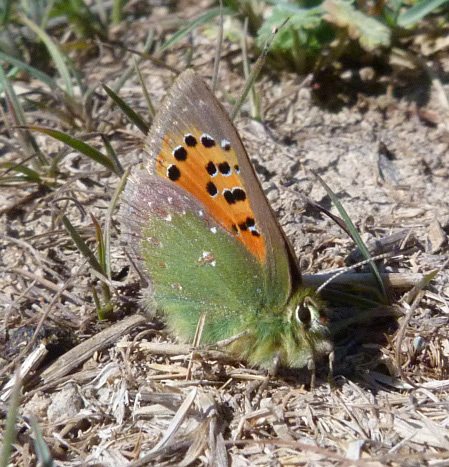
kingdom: Animalia
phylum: Arthropoda
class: Insecta
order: Lepidoptera
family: Lycaenidae
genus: Tomares
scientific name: Tomares ballus
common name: Provence hairstreak
